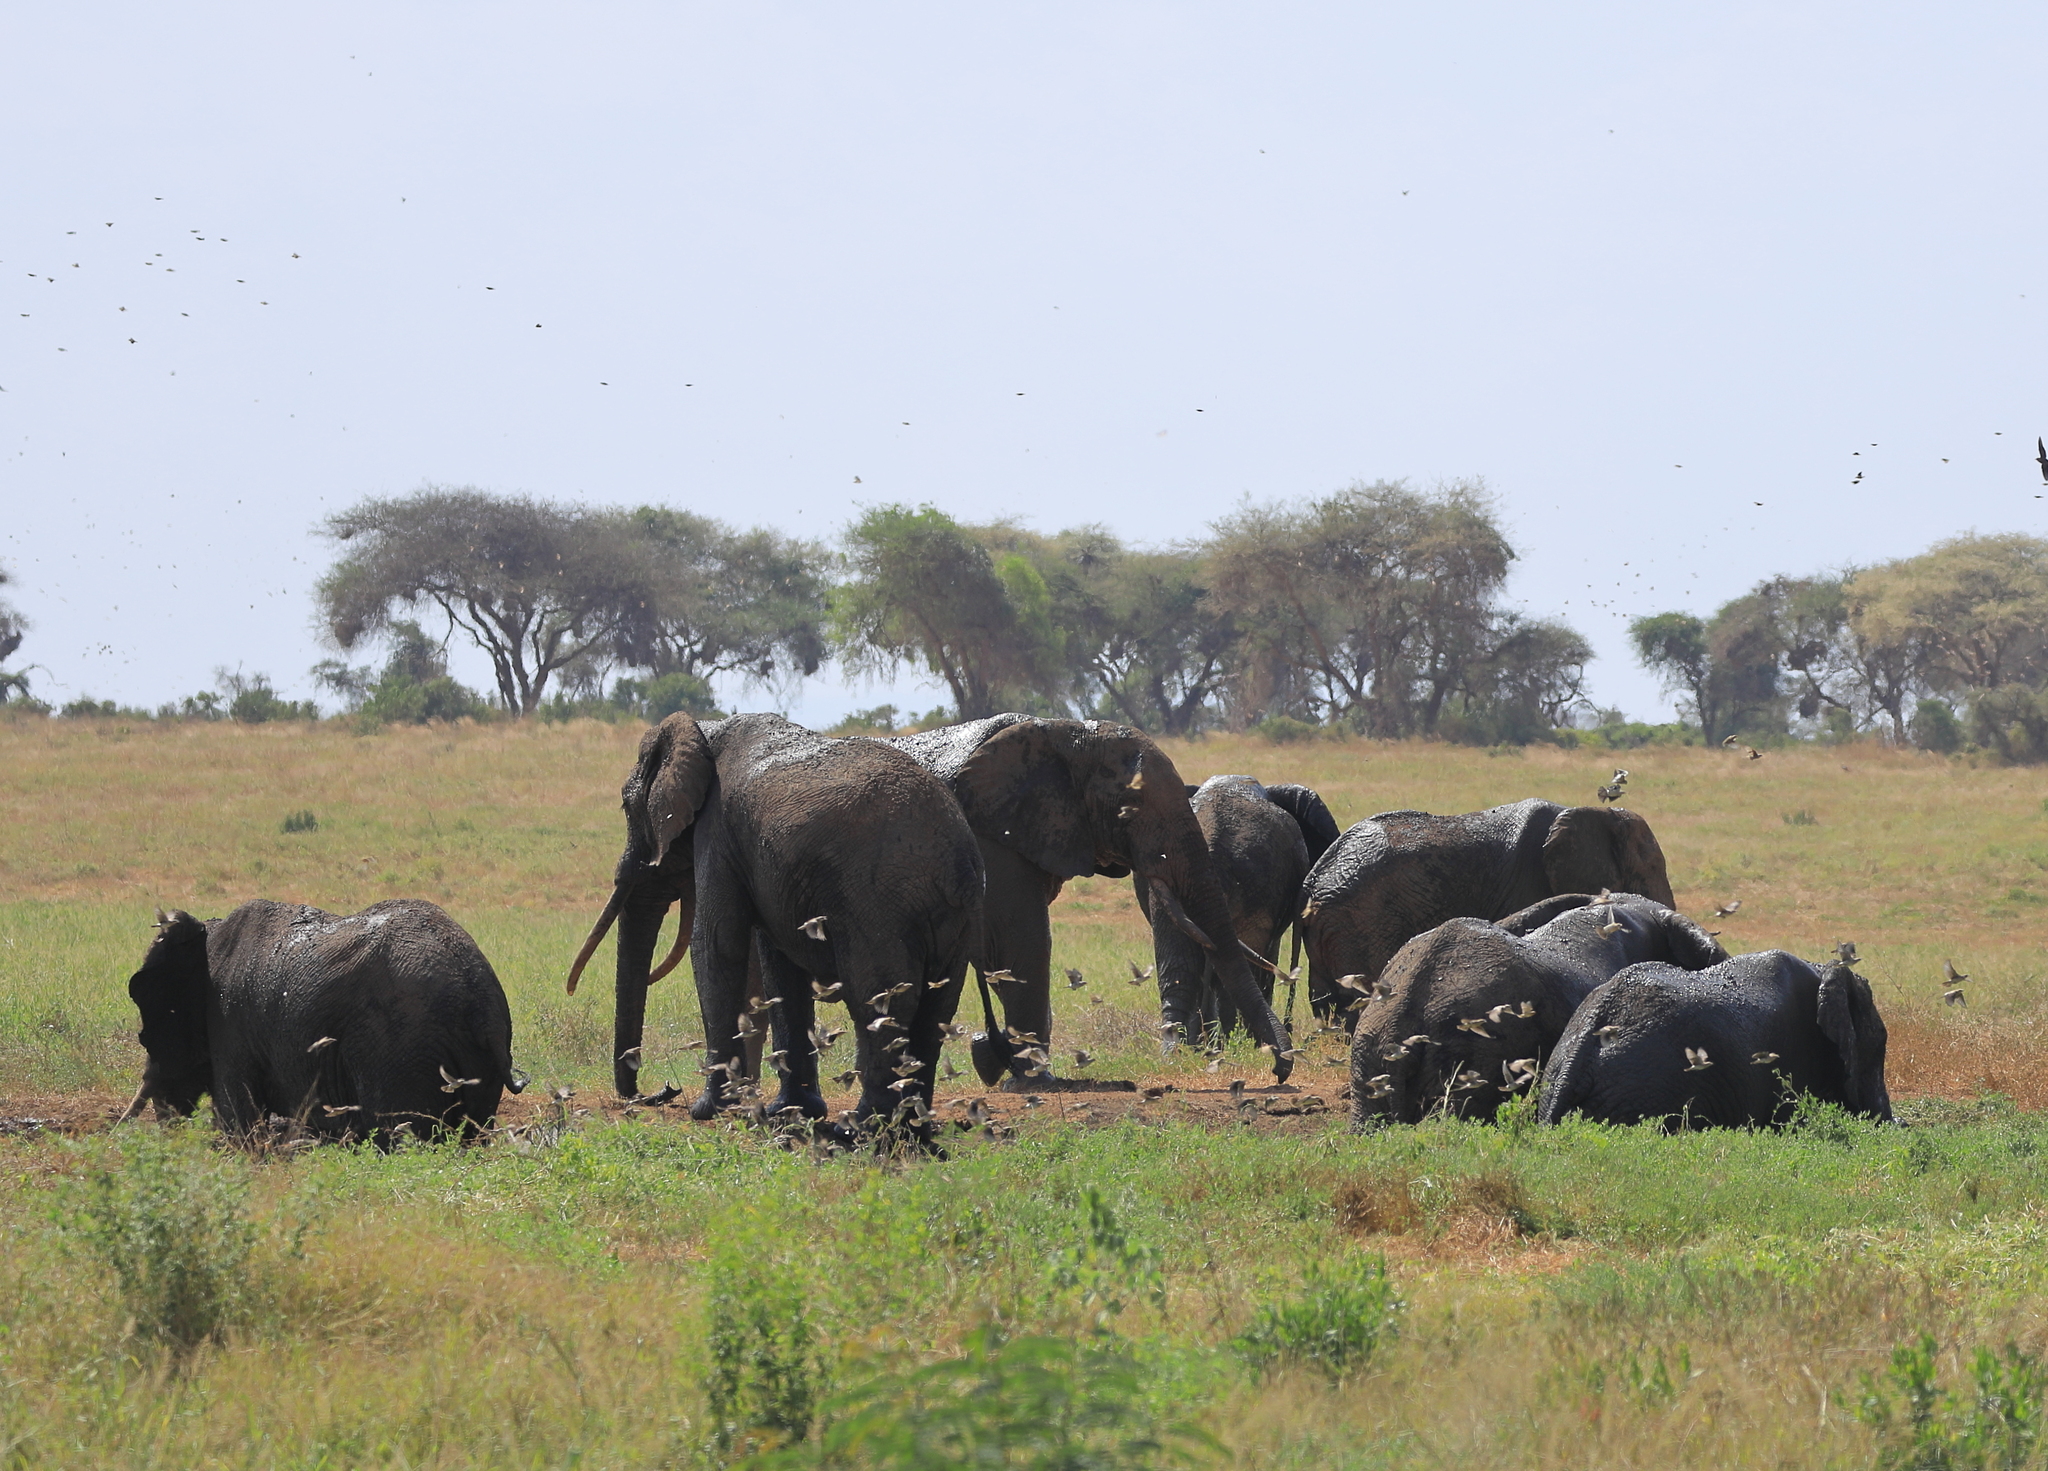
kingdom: Animalia
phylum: Chordata
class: Mammalia
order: Proboscidea
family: Elephantidae
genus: Loxodonta
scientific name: Loxodonta africana
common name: African elephant
